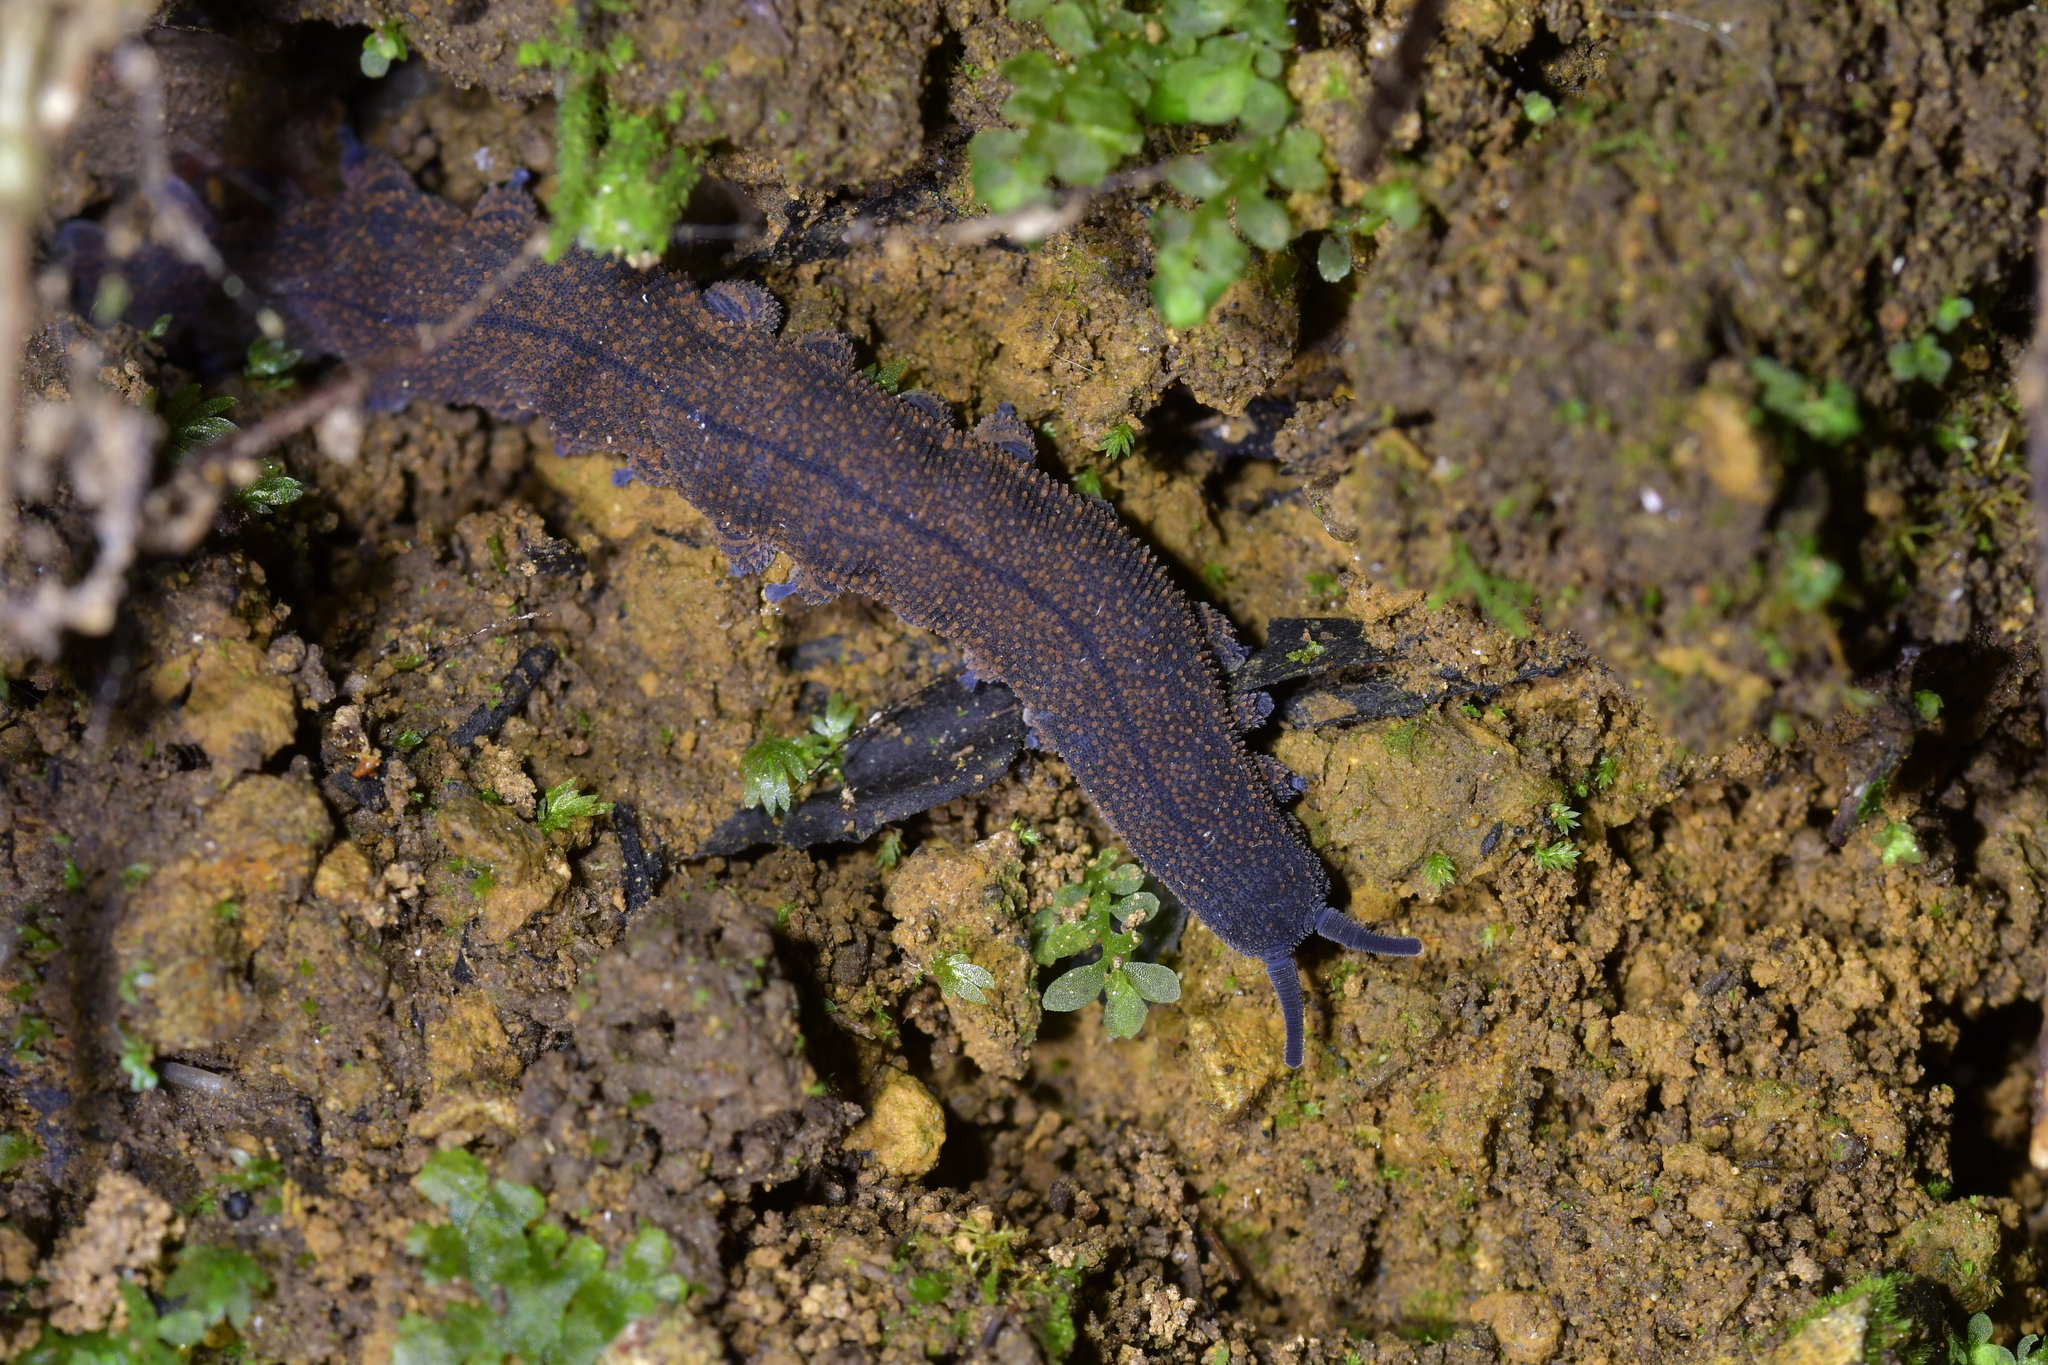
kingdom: Animalia
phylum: Onychophora
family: Peripatopsidae
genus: Peripatoides
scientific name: Peripatoides novaezealandiae
